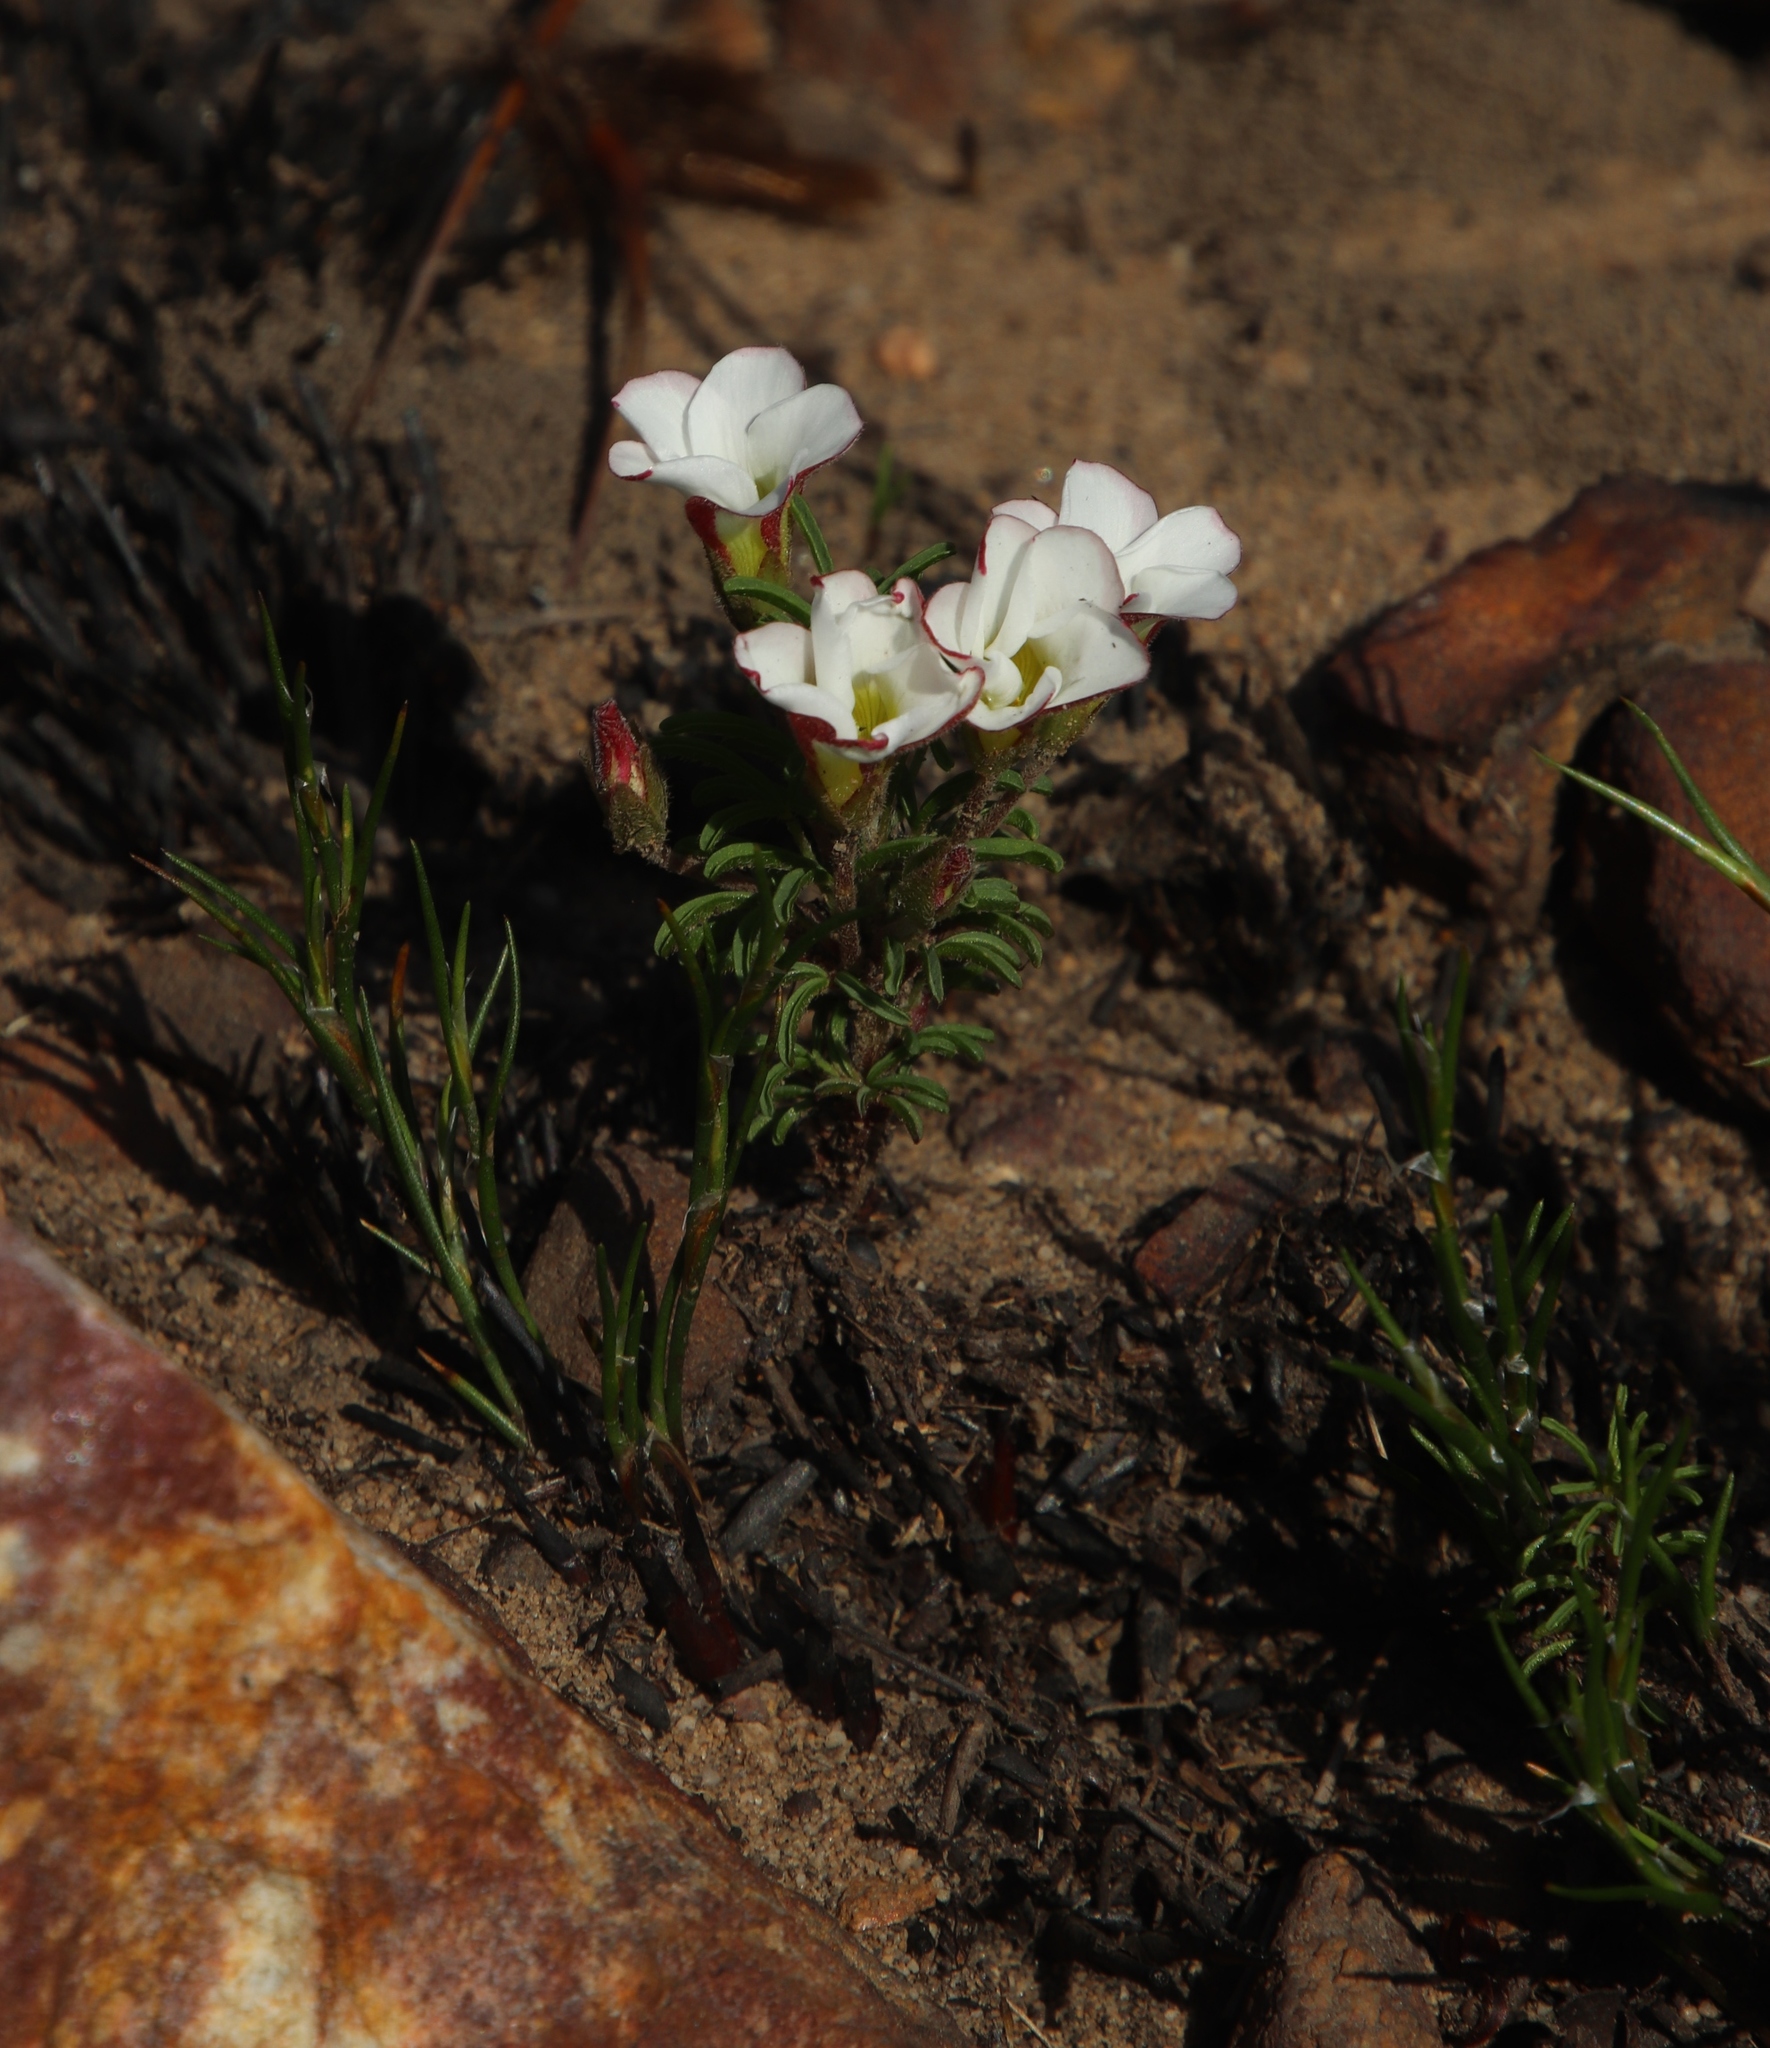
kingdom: Plantae
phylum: Tracheophyta
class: Magnoliopsida
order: Oxalidales
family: Oxalidaceae
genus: Oxalis
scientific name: Oxalis tenuifolia
